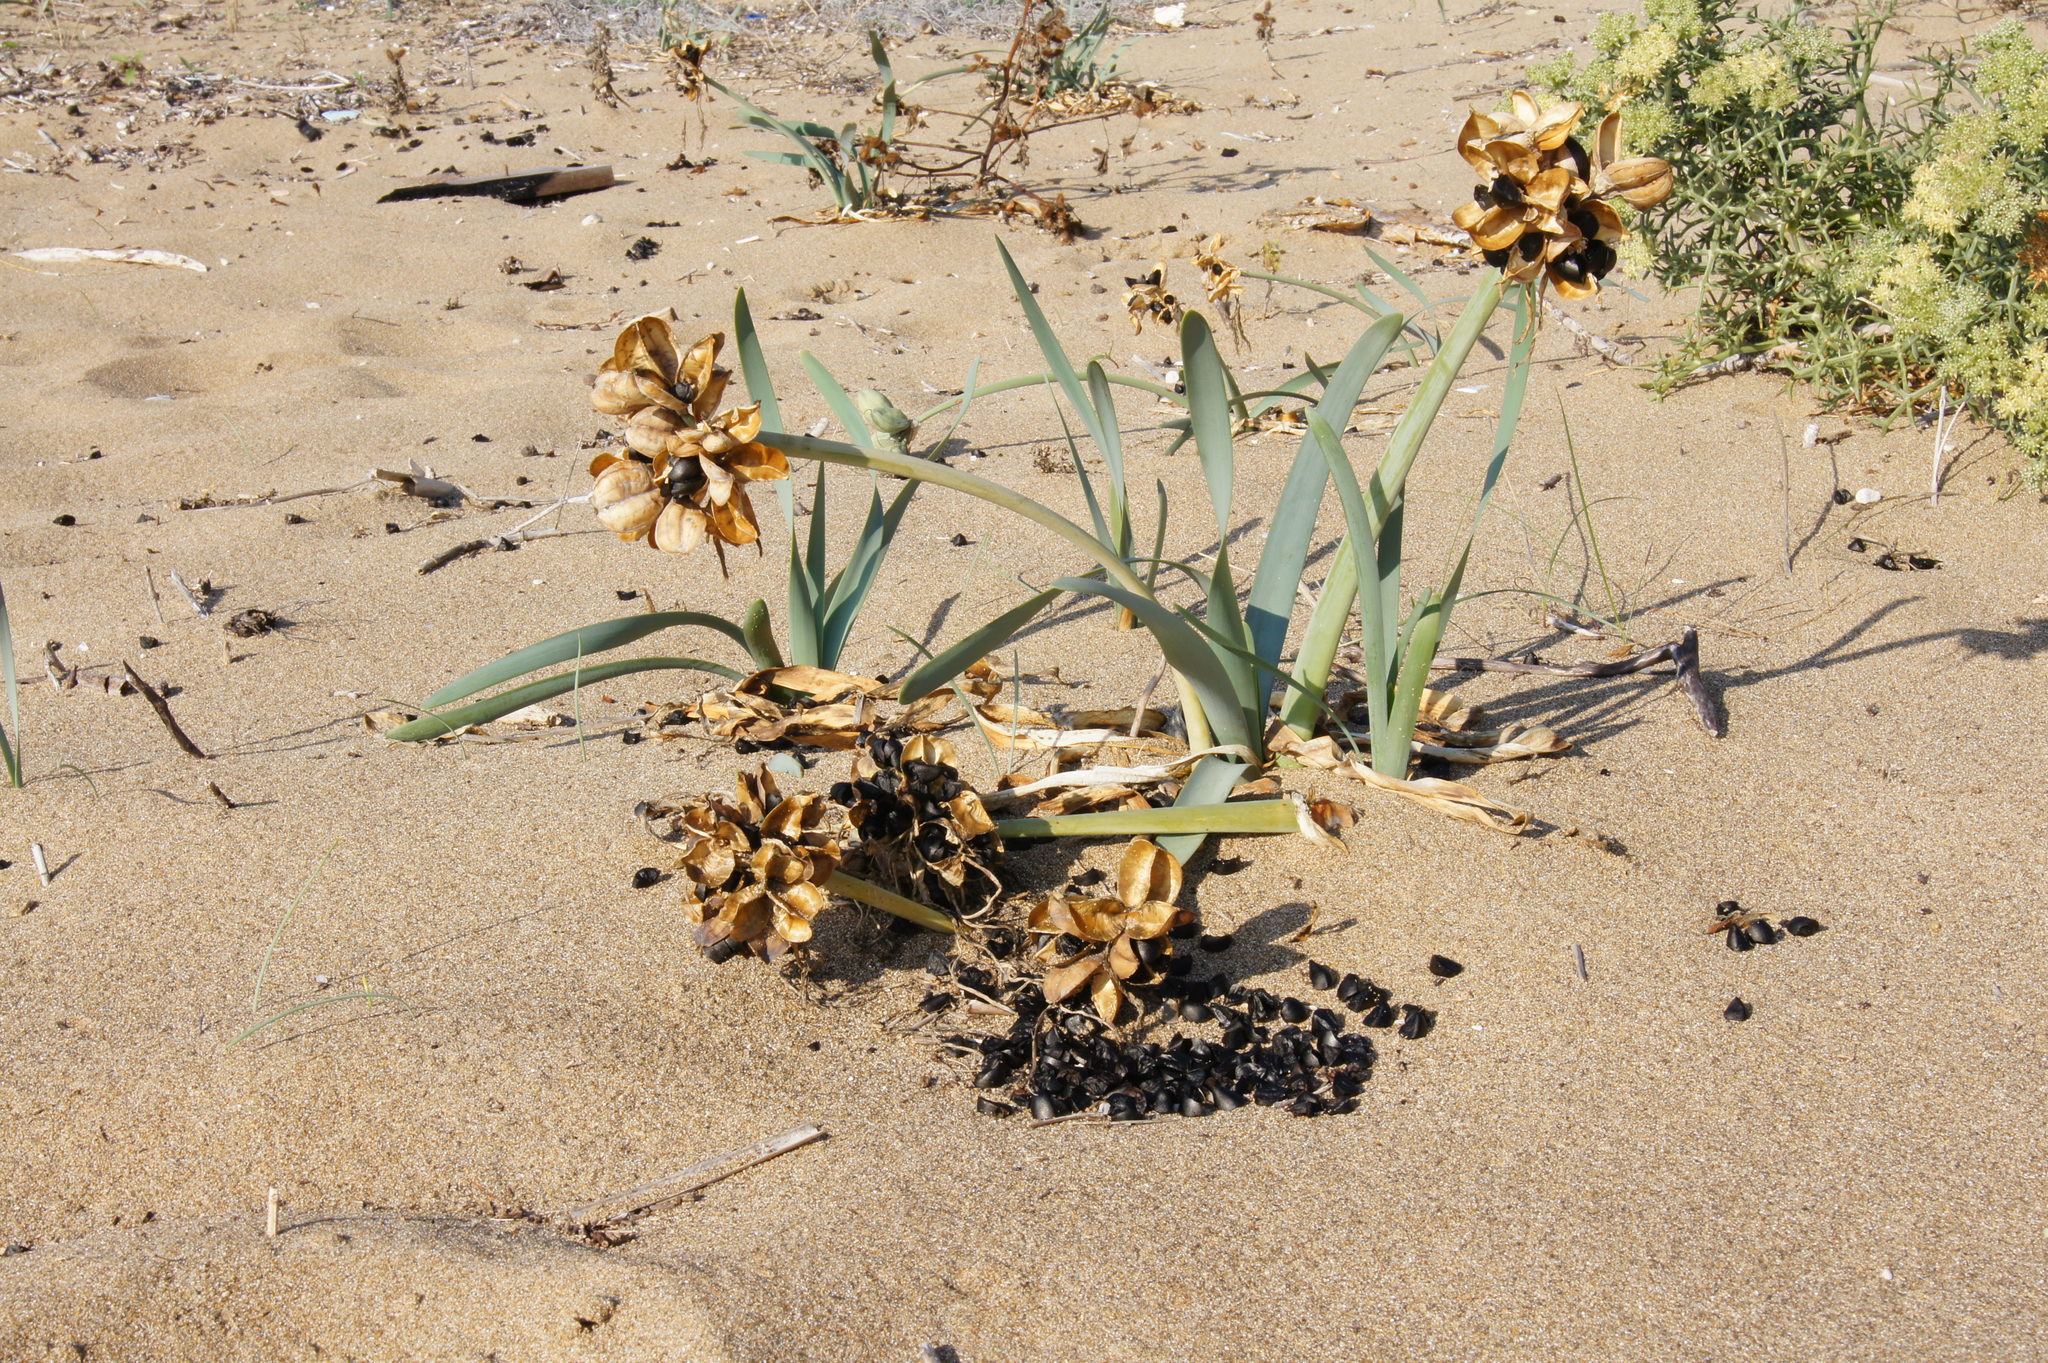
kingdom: Plantae
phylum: Tracheophyta
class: Liliopsida
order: Asparagales
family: Amaryllidaceae
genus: Pancratium
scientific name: Pancratium maritimum
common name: Sea-daffodil
